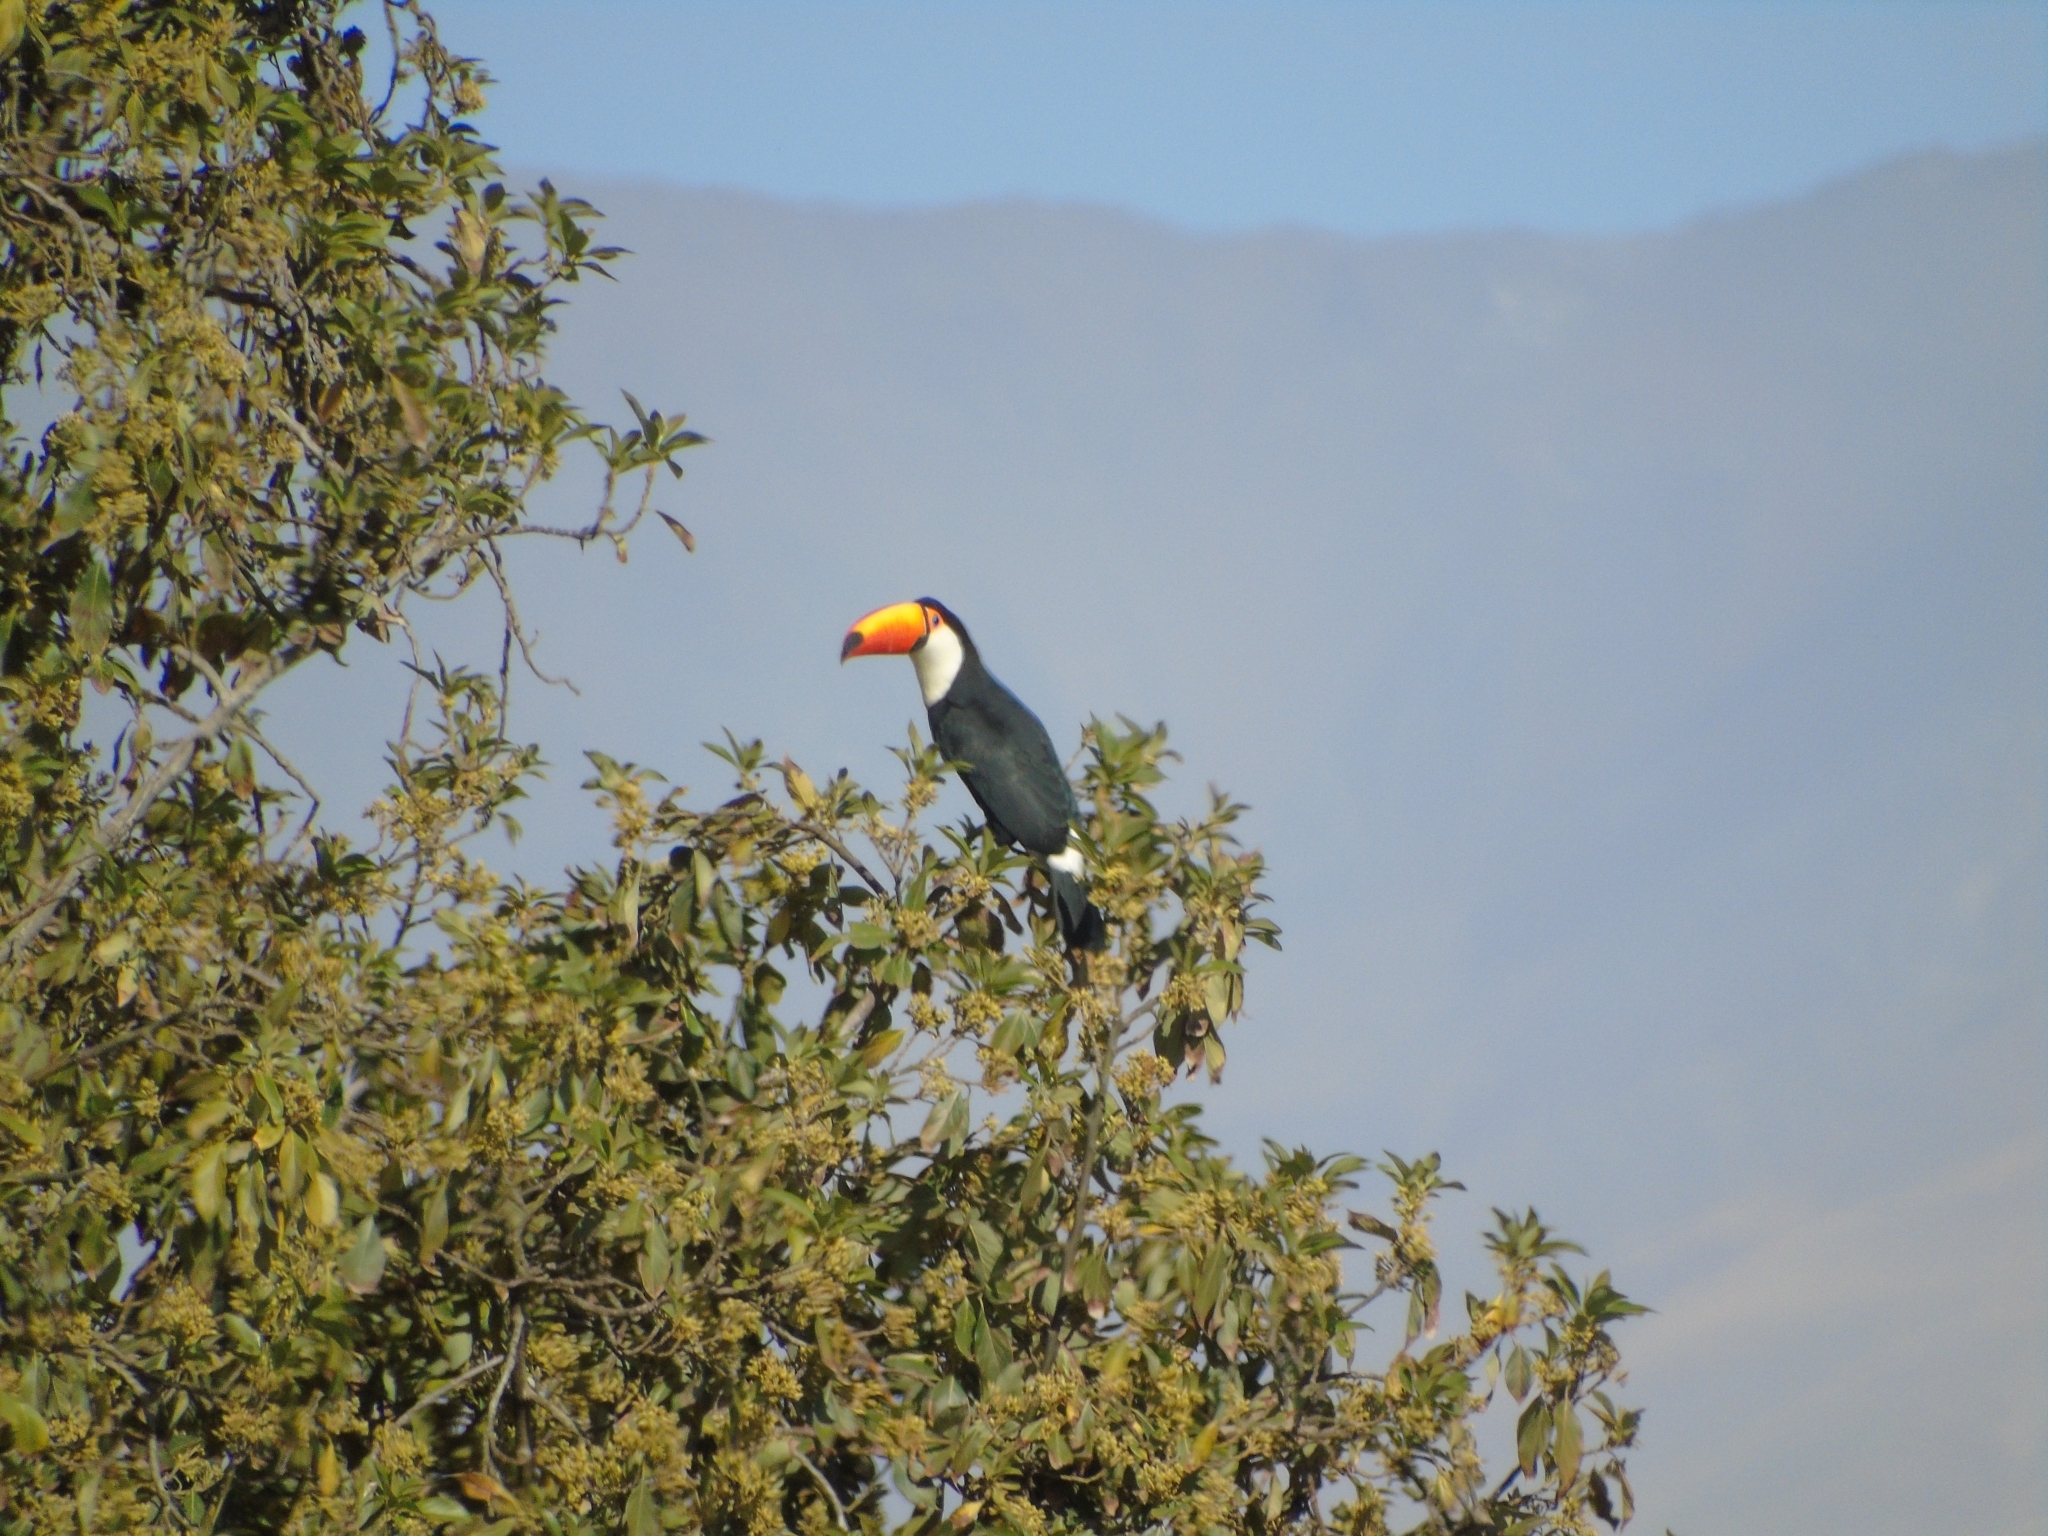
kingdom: Animalia
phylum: Chordata
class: Aves
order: Piciformes
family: Ramphastidae
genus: Ramphastos
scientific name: Ramphastos toco
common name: Toco toucan
